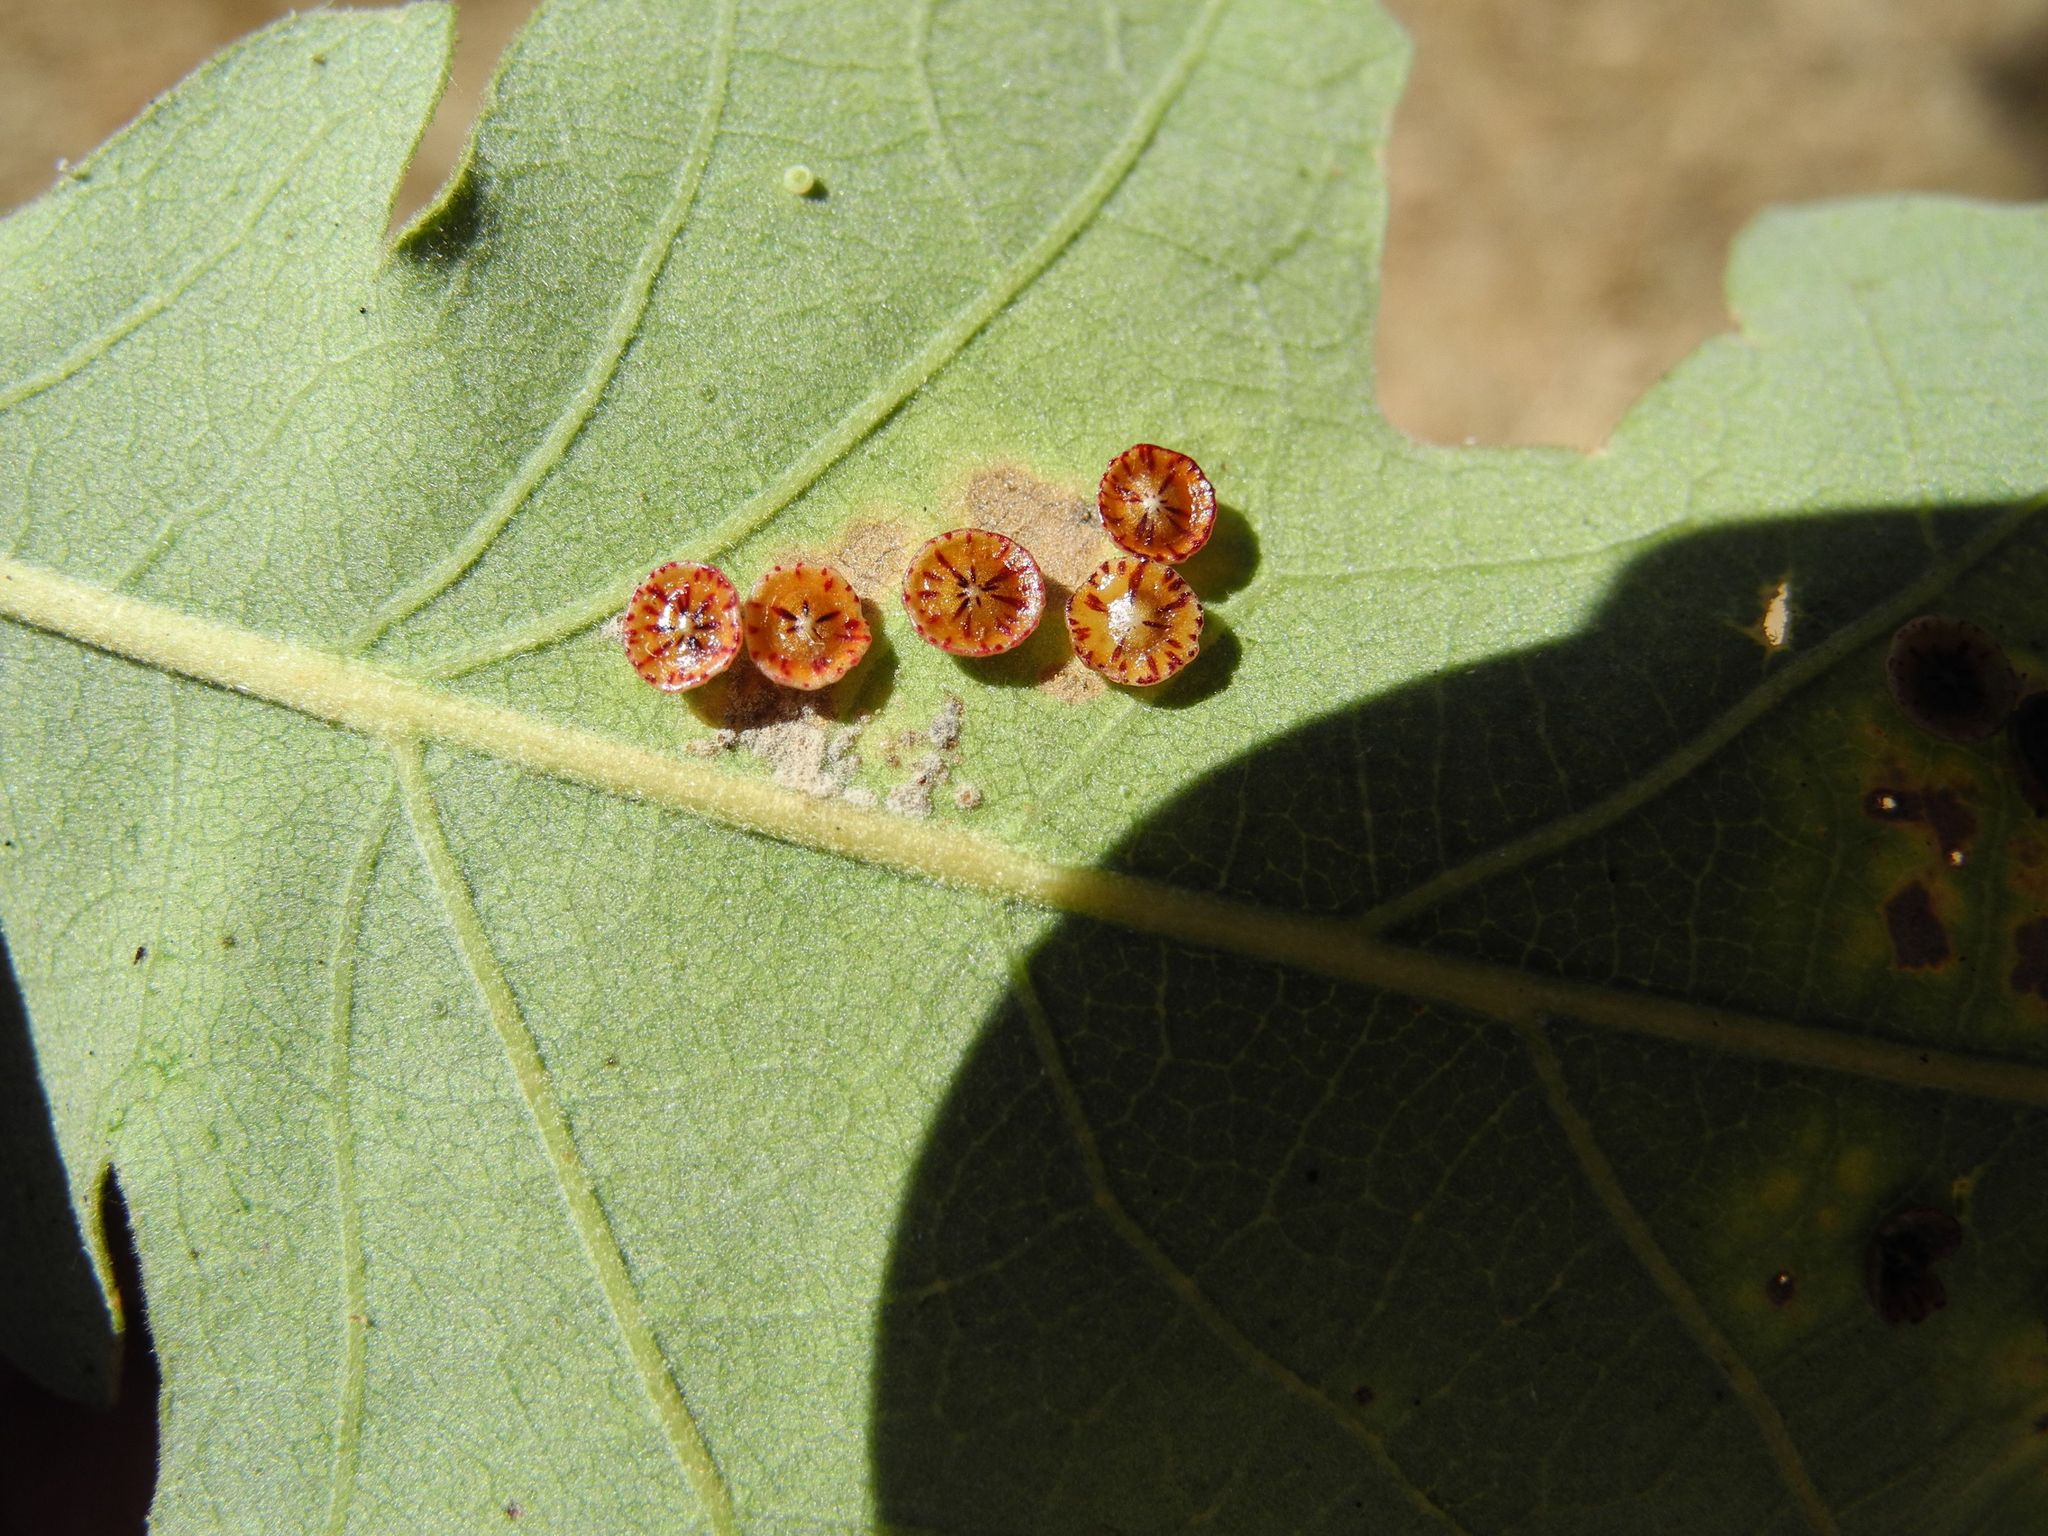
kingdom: Animalia
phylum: Arthropoda
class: Insecta
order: Hymenoptera
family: Cynipidae
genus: Andricus
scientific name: Andricus
